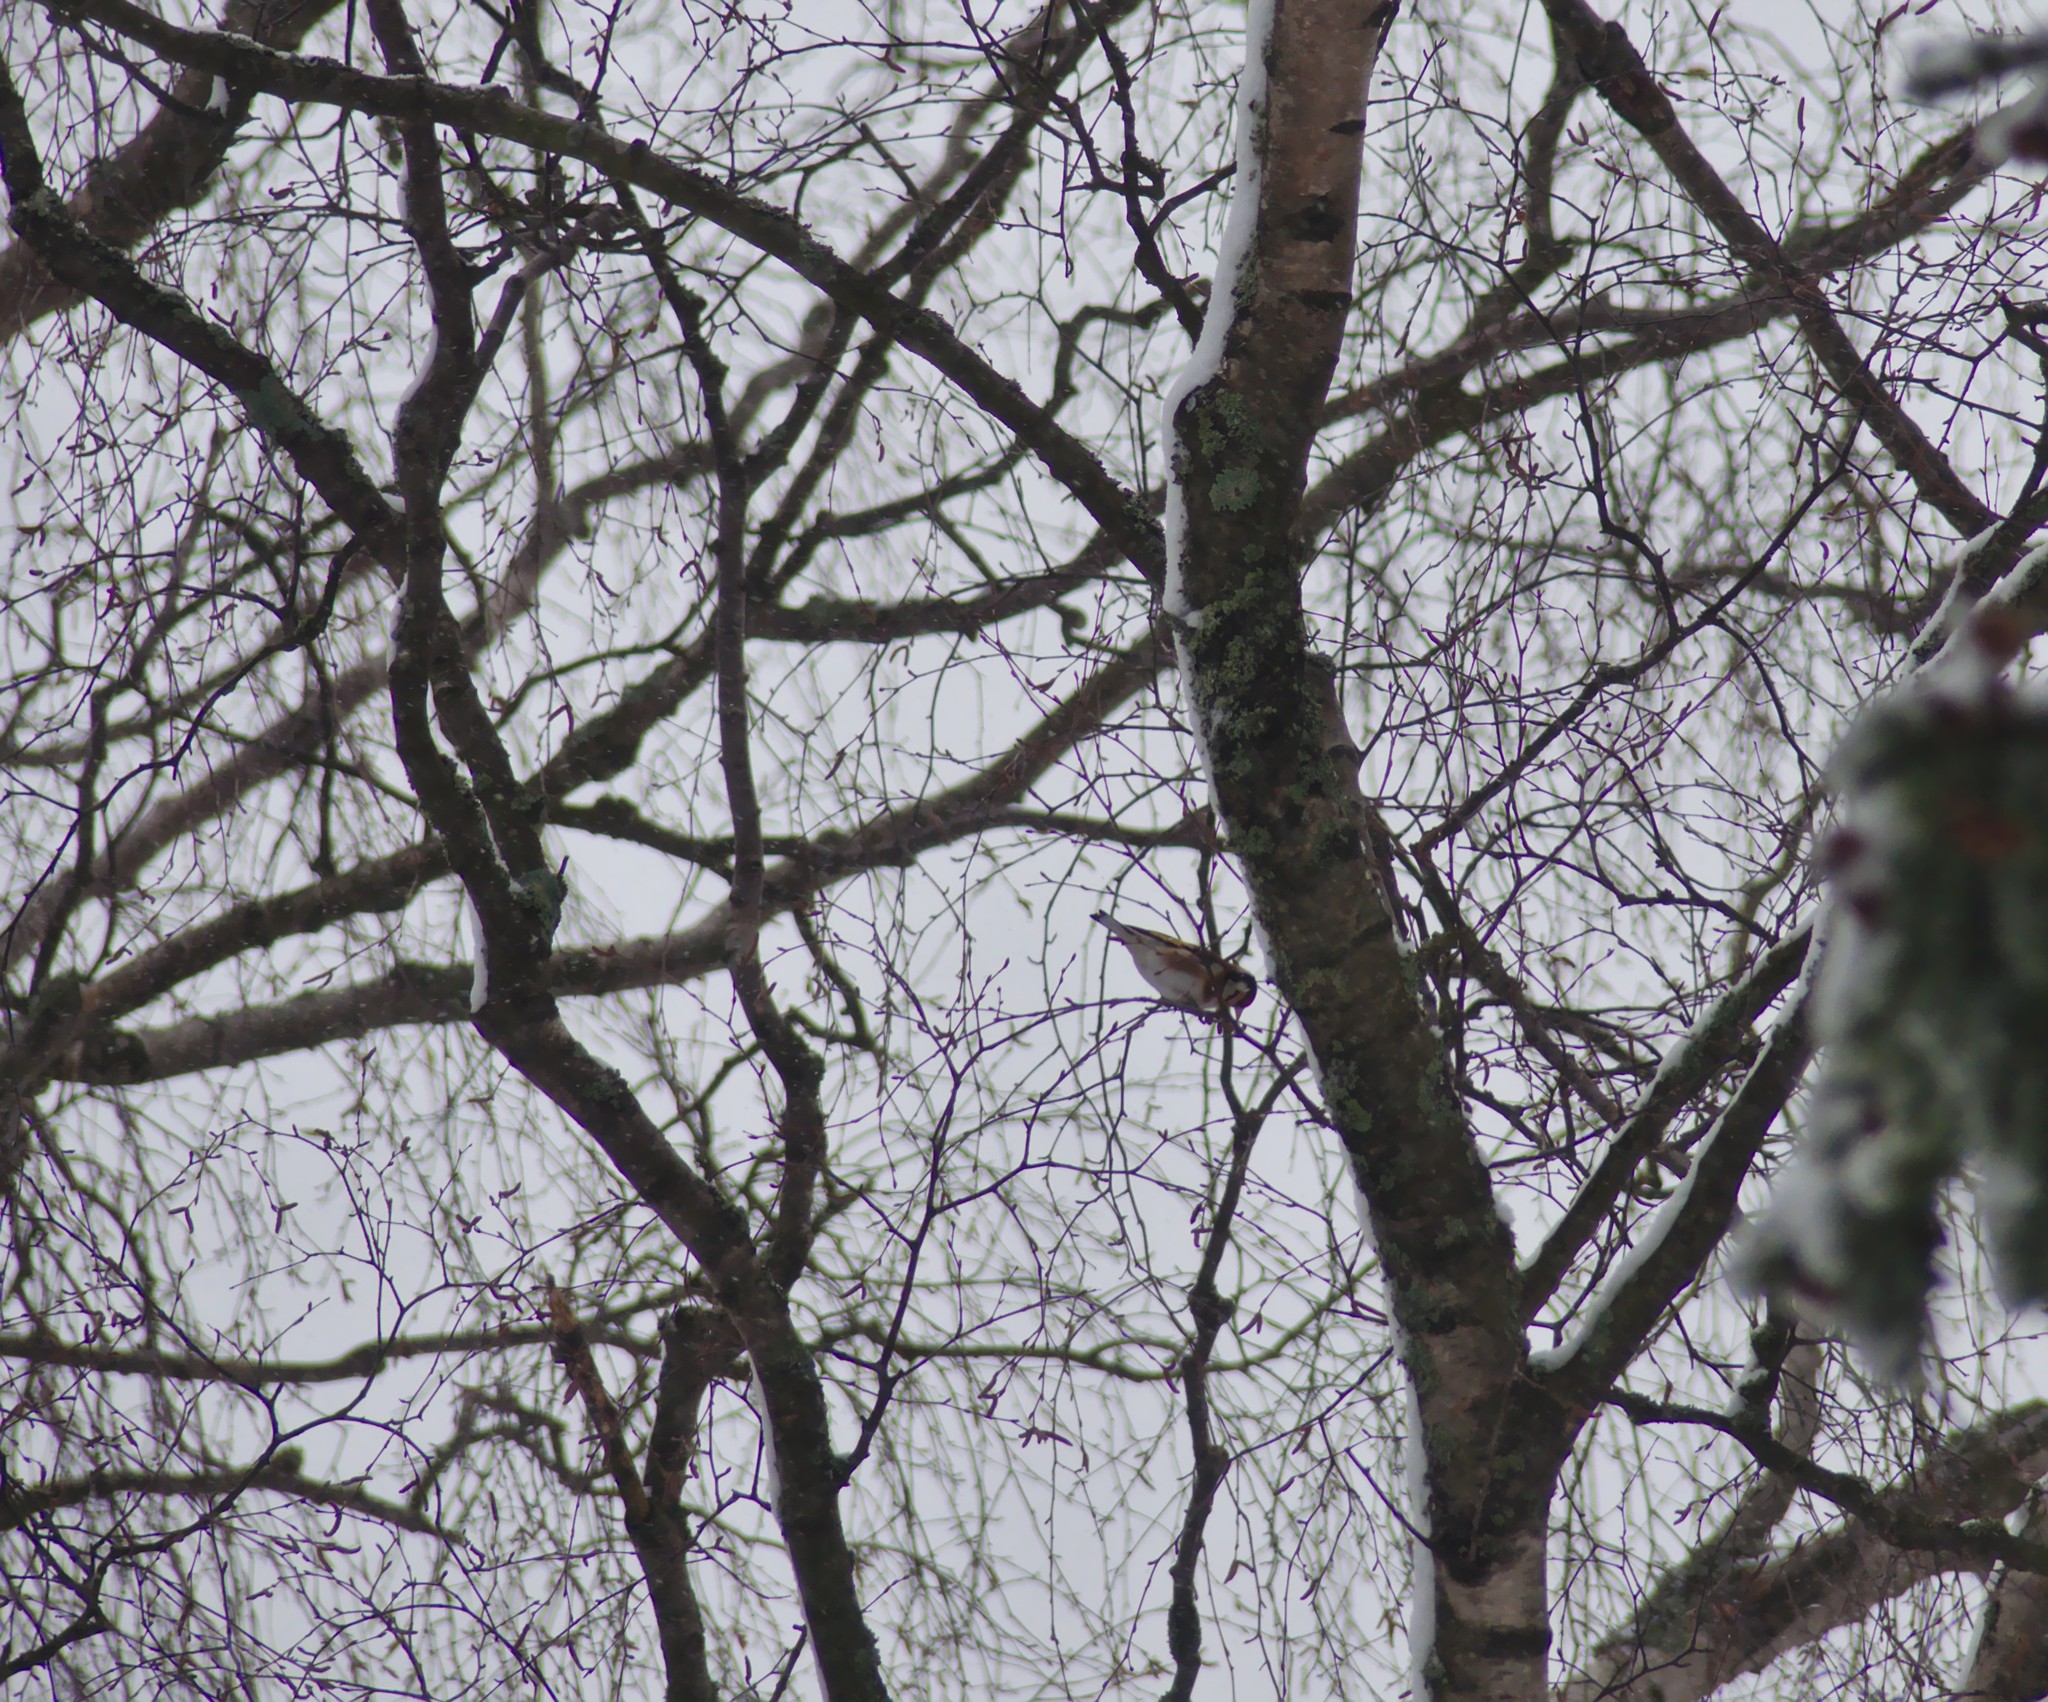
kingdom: Animalia
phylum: Chordata
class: Aves
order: Passeriformes
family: Fringillidae
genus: Carduelis
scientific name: Carduelis carduelis
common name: European goldfinch
